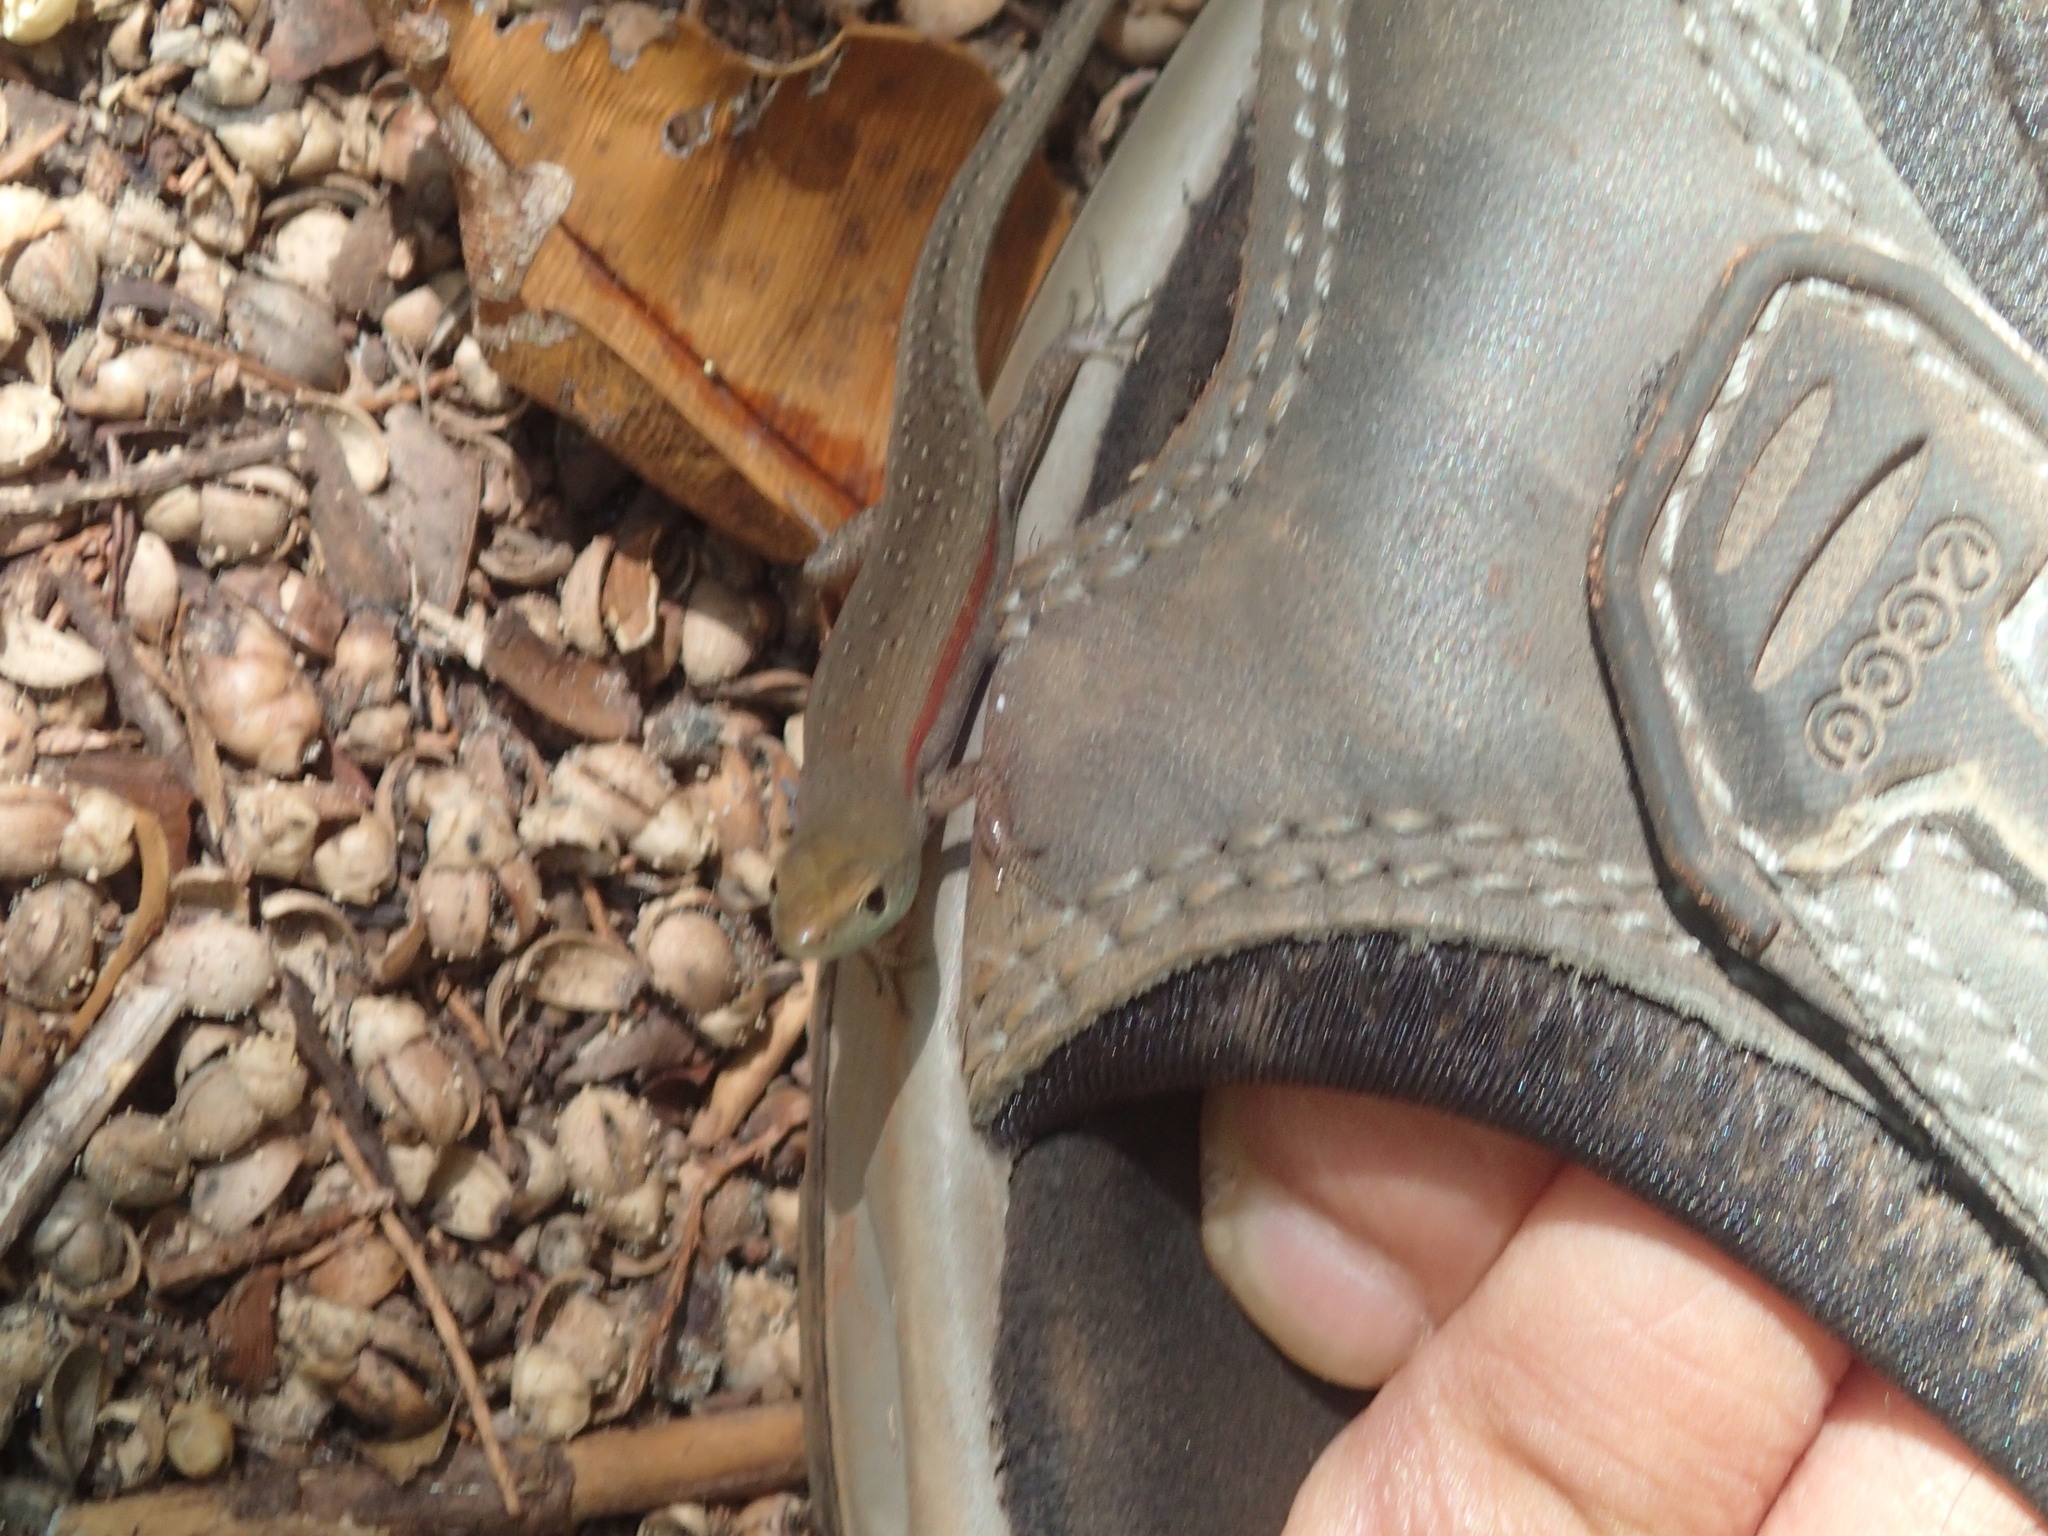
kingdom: Animalia
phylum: Chordata
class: Squamata
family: Scincidae
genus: Carlia
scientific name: Carlia gracilis
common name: Slender rainbow skink
